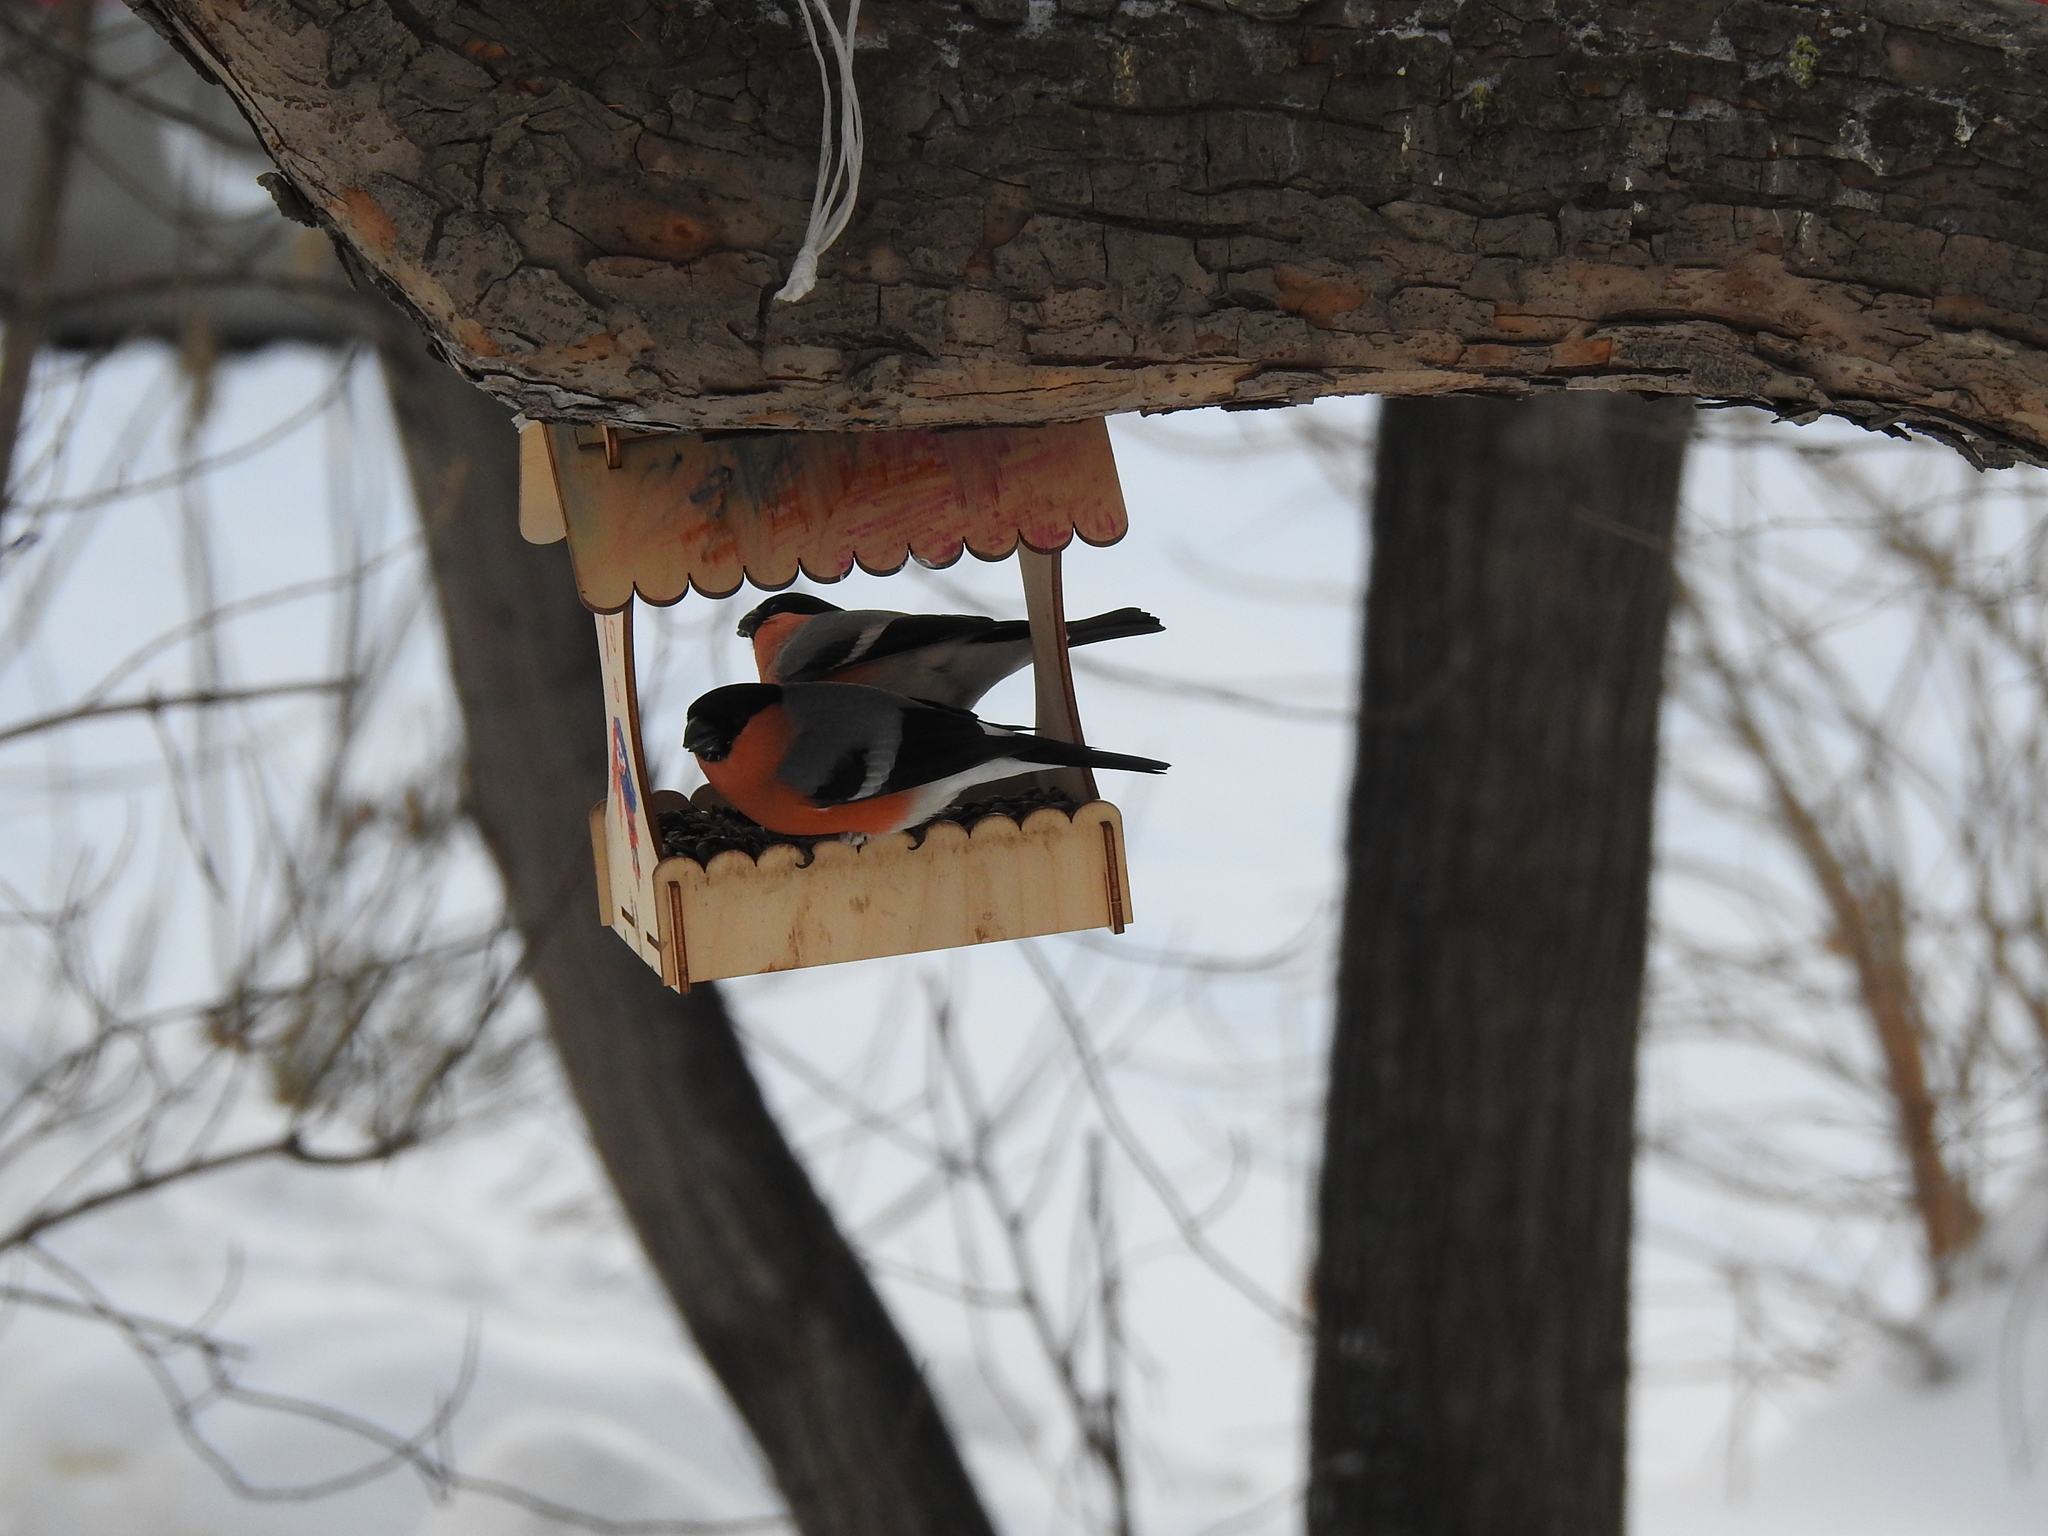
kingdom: Animalia
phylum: Chordata
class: Aves
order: Passeriformes
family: Fringillidae
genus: Pyrrhula
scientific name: Pyrrhula pyrrhula
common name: Eurasian bullfinch
